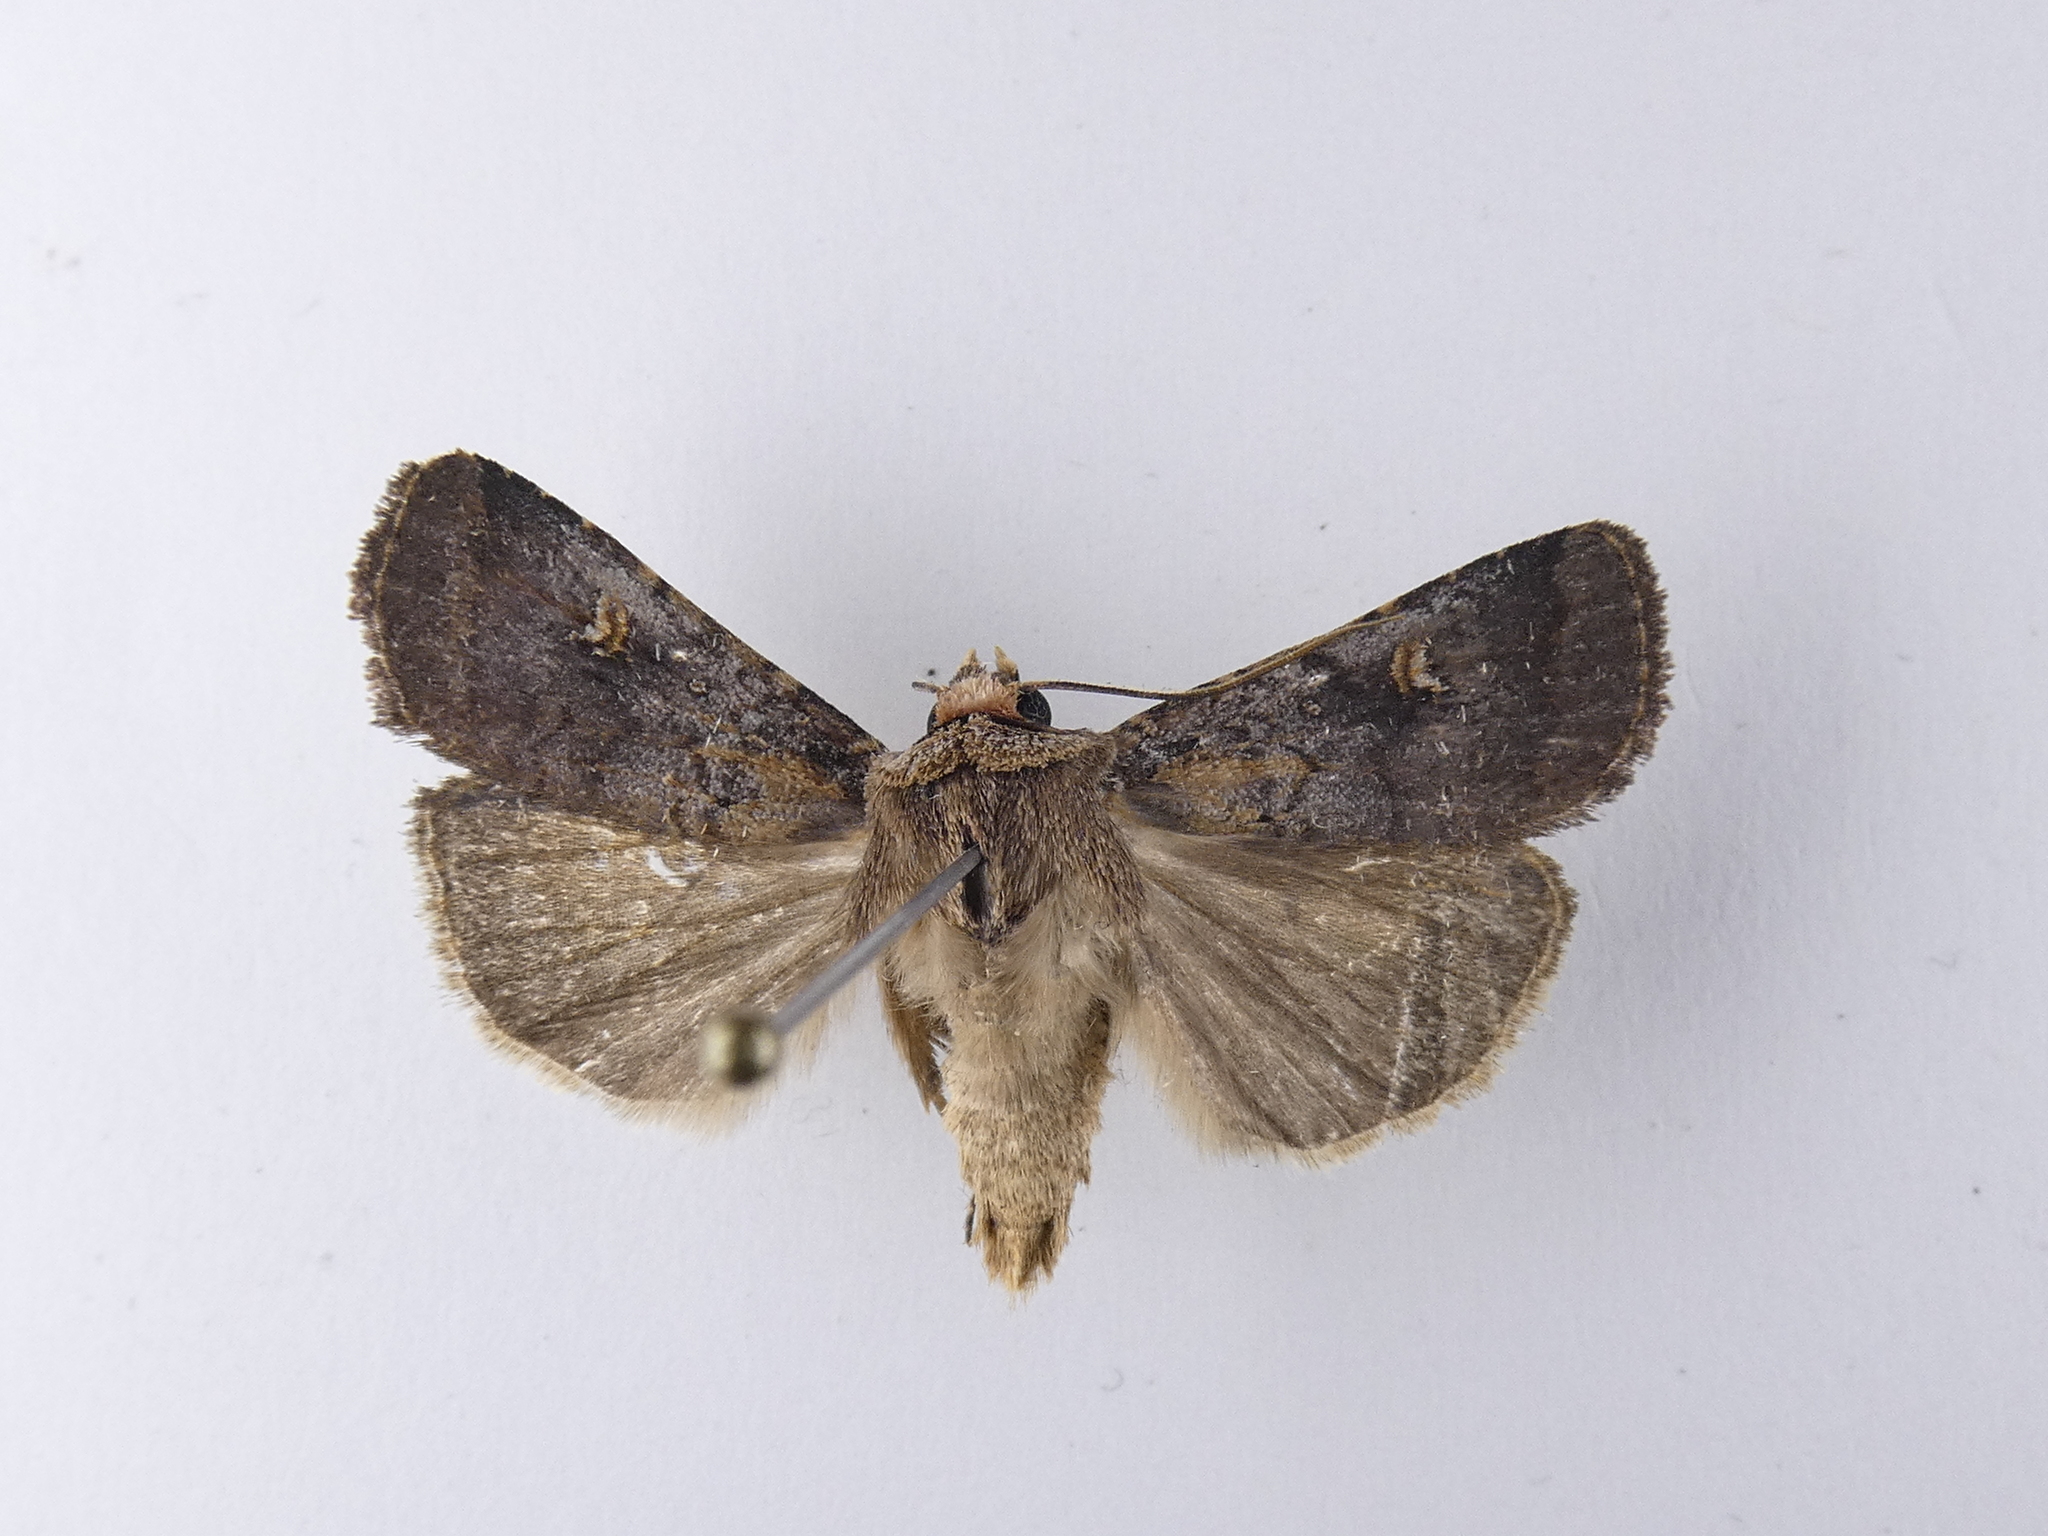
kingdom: Animalia
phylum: Arthropoda
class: Insecta
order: Lepidoptera
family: Noctuidae
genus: Proteuxoa
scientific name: Proteuxoa tetronycha
